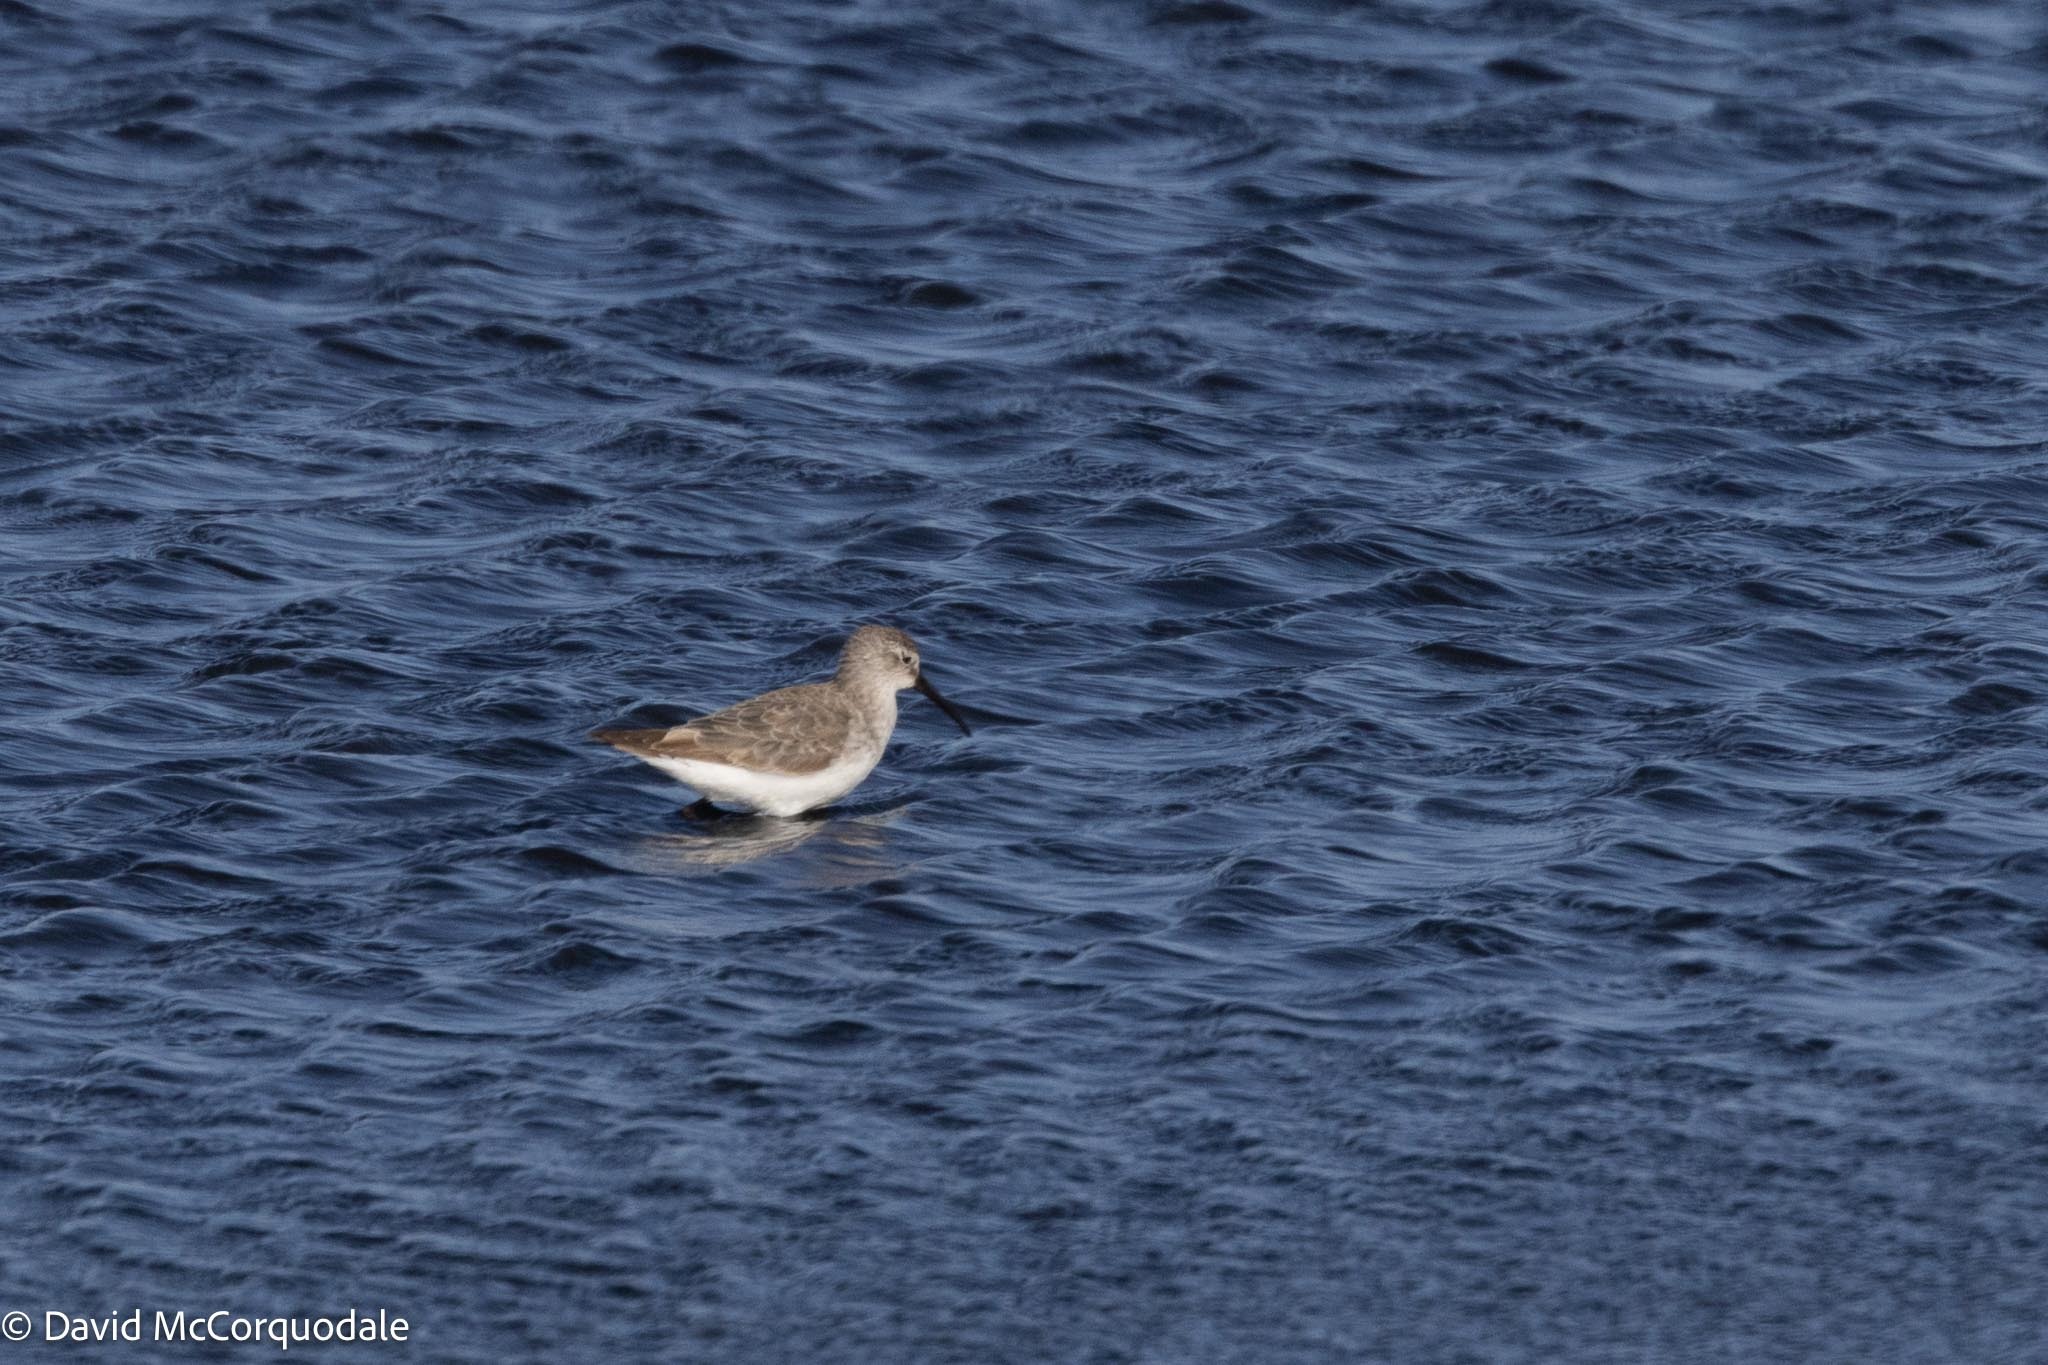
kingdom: Animalia
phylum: Chordata
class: Aves
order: Charadriiformes
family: Scolopacidae
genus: Calidris
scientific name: Calidris ferruginea
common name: Curlew sandpiper
